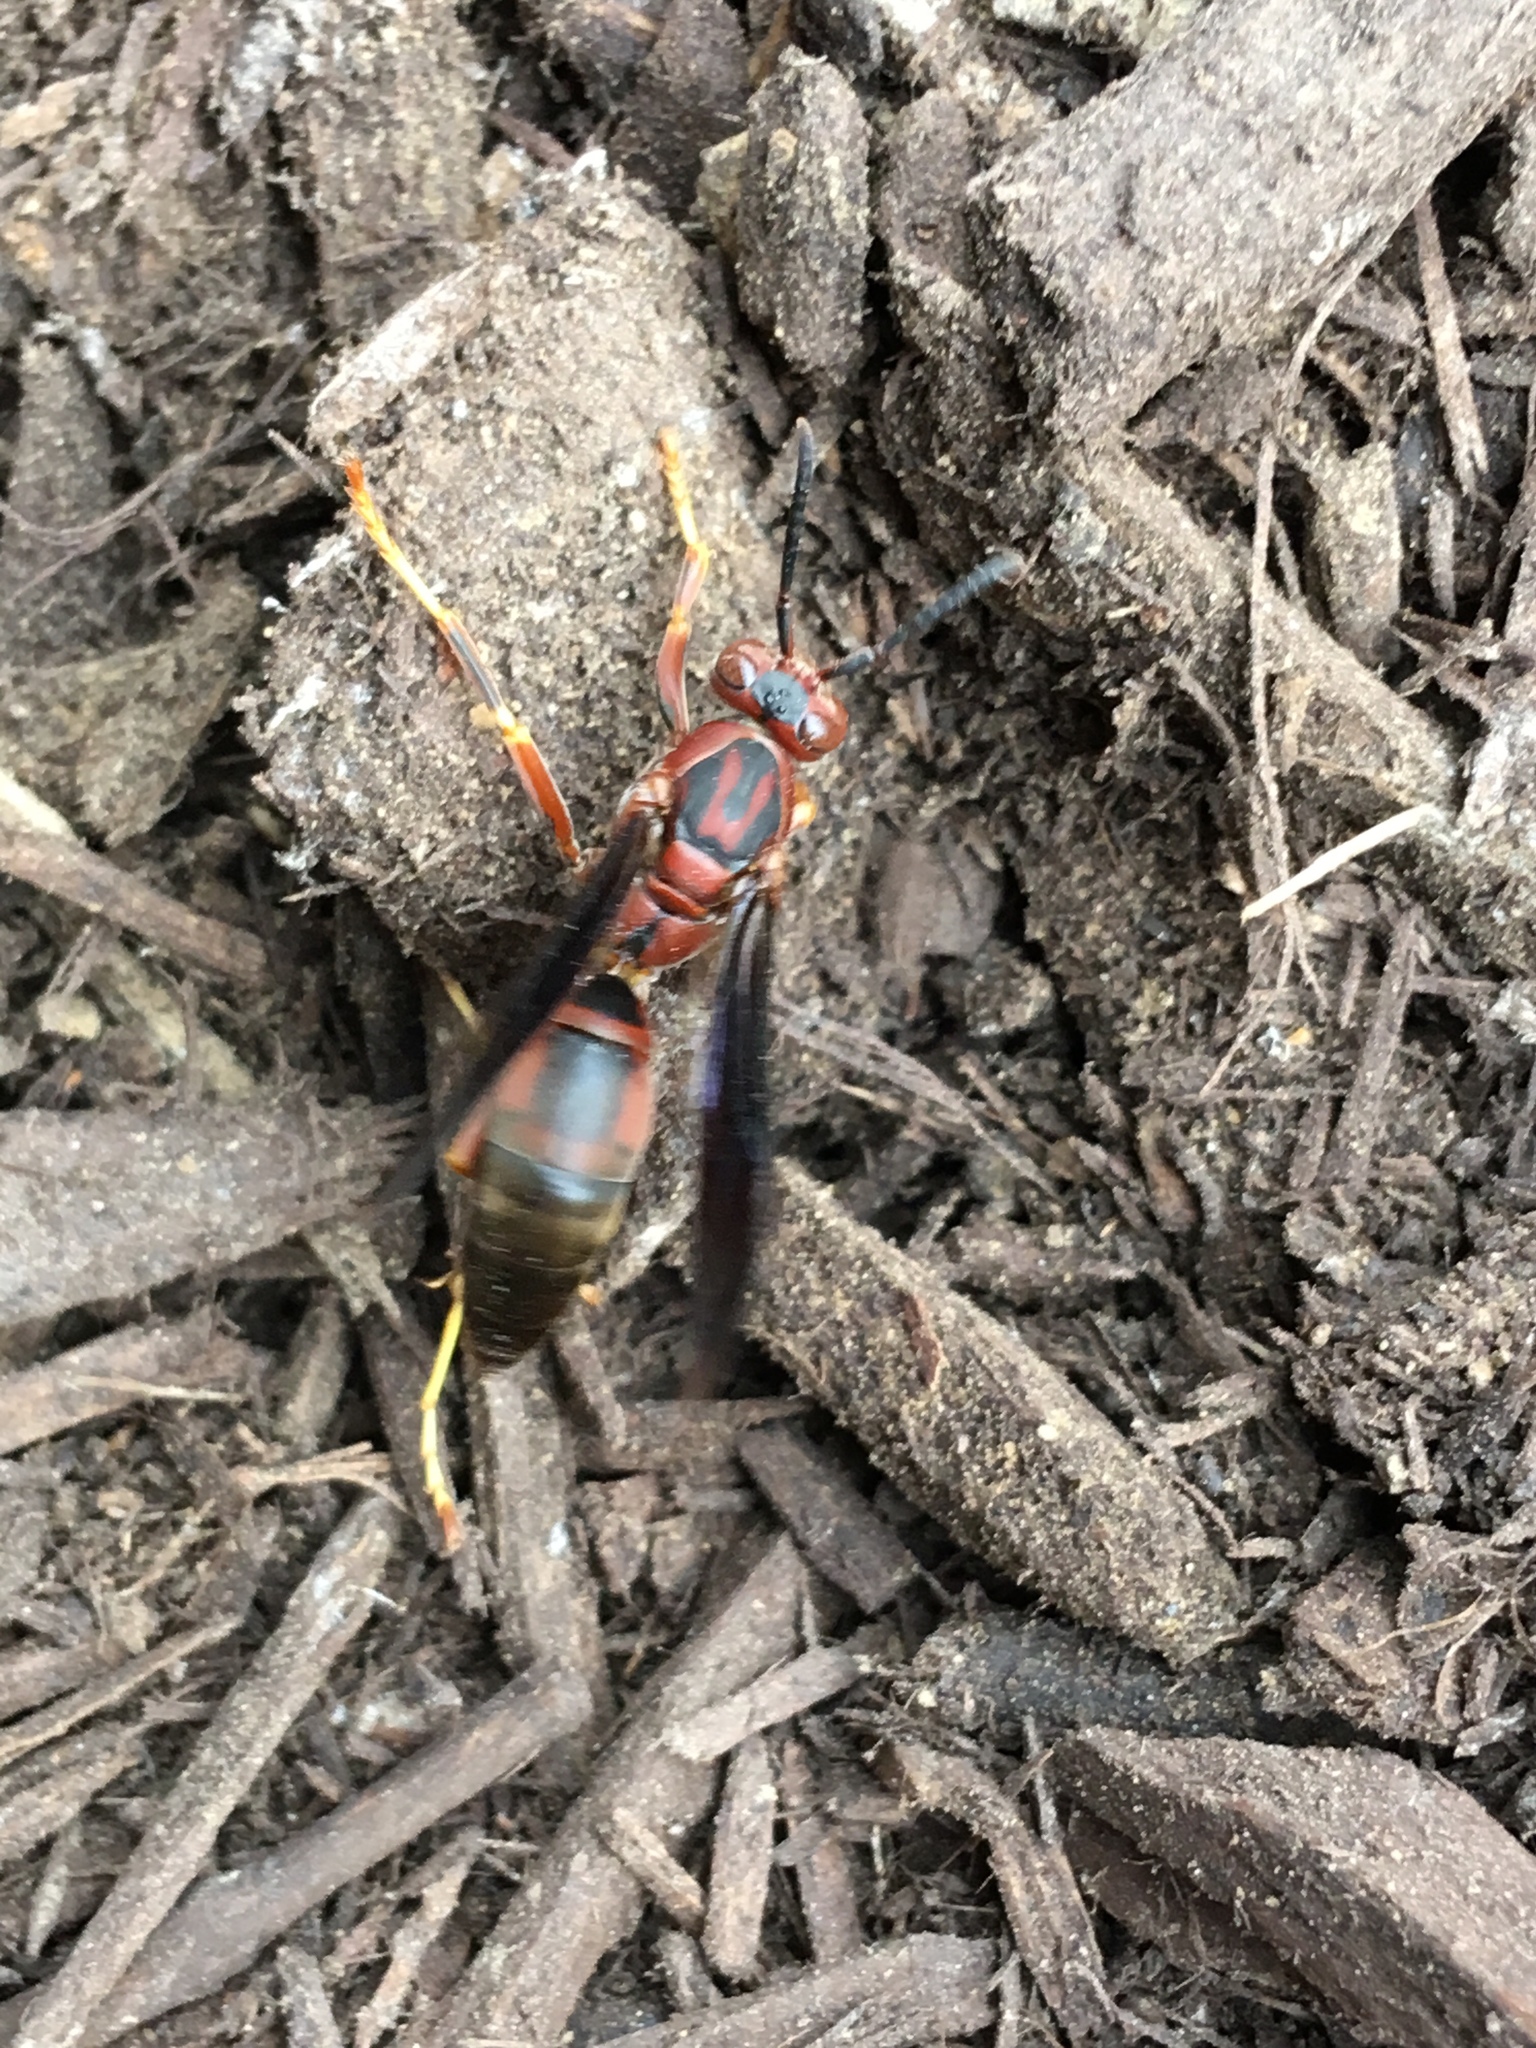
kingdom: Animalia
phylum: Arthropoda
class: Insecta
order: Hymenoptera
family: Eumenidae
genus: Polistes
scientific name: Polistes metricus
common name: Metric paper wasp
